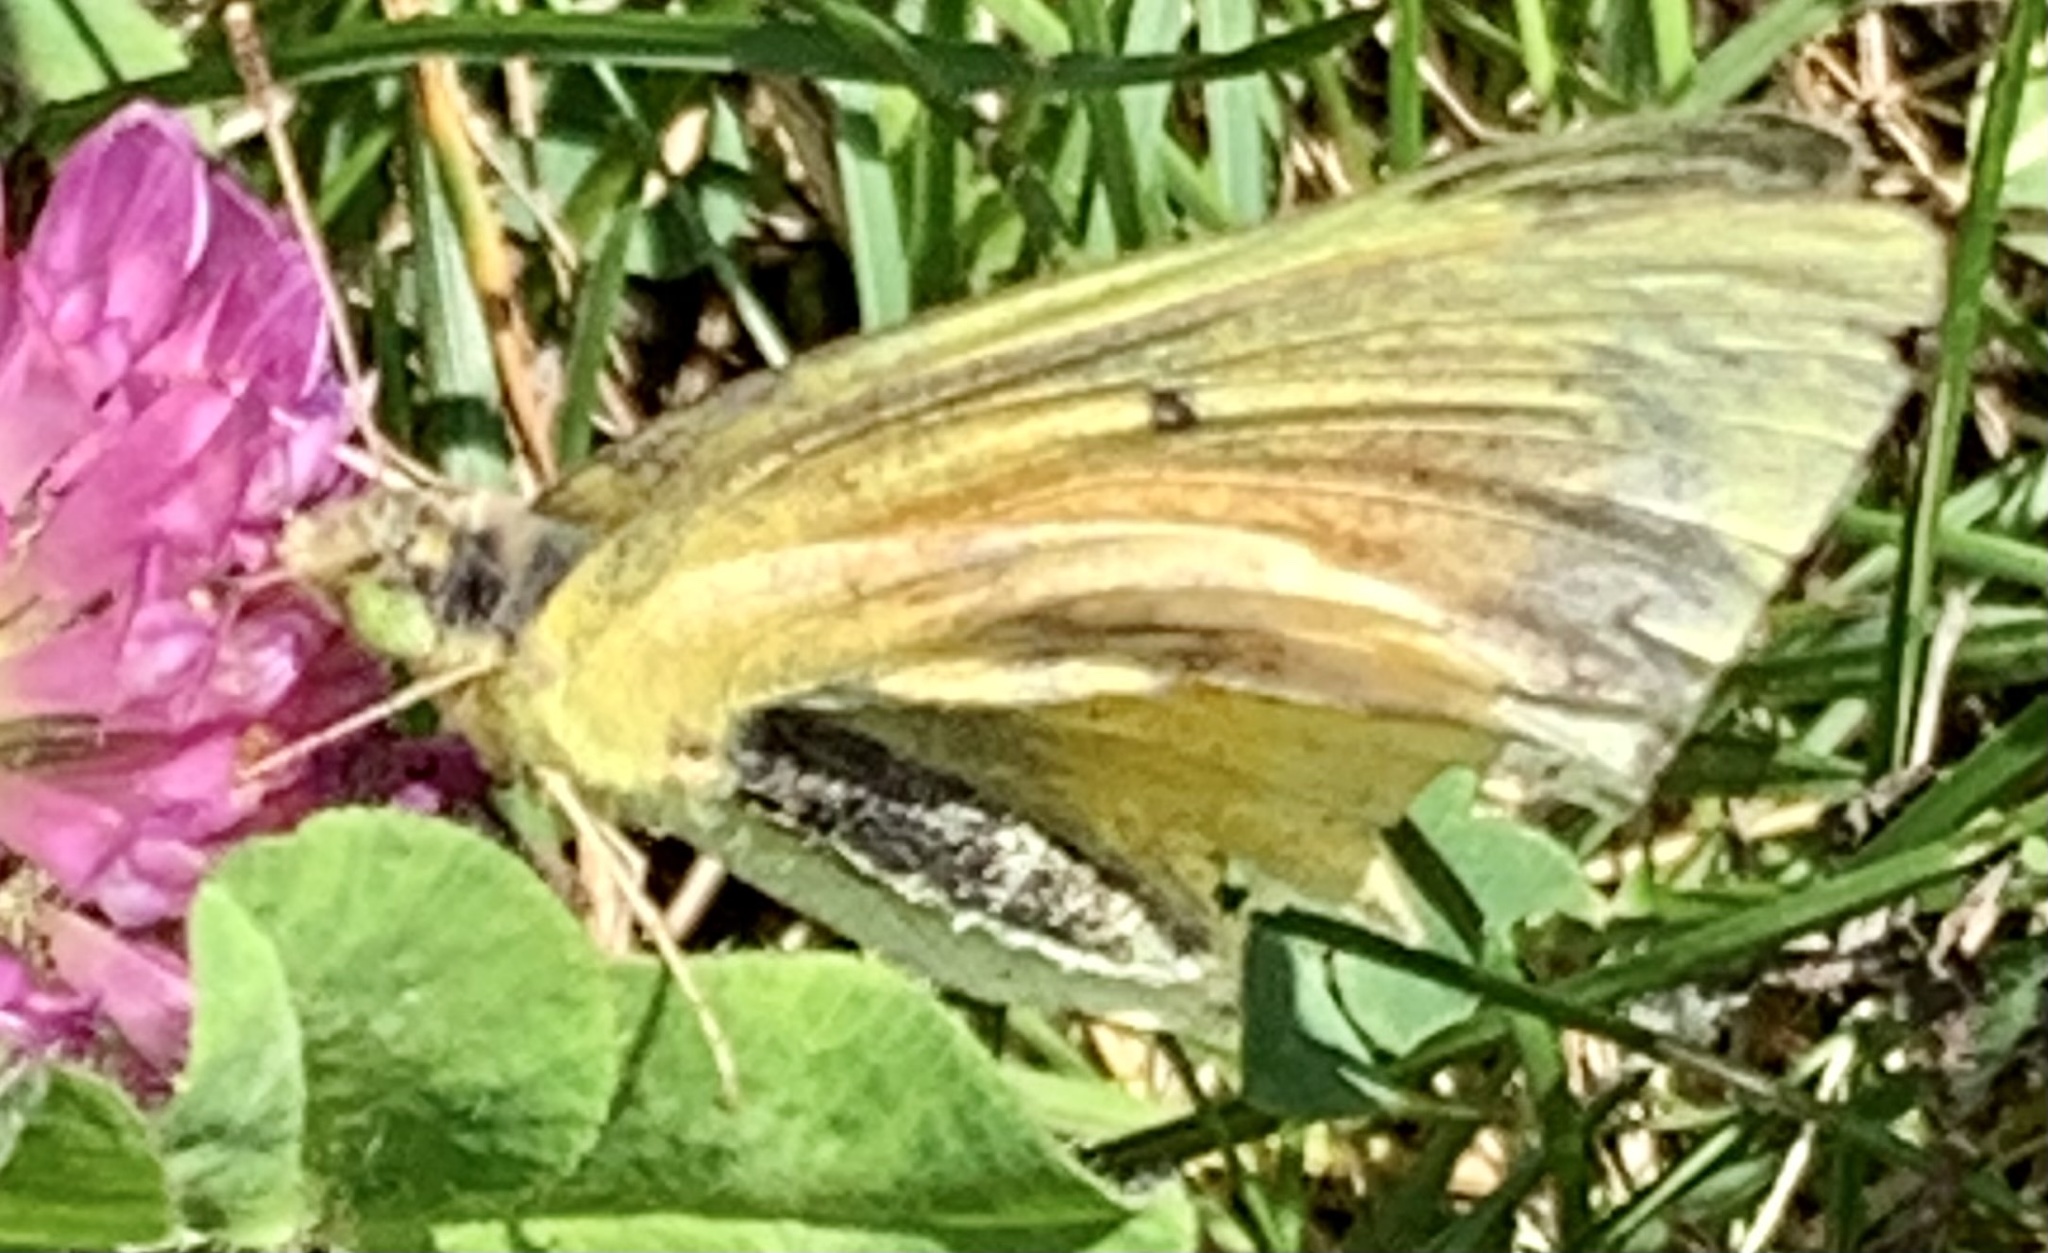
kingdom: Animalia
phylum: Arthropoda
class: Insecta
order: Lepidoptera
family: Pieridae
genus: Colias
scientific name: Colias eurytheme
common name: Alfalfa butterfly
